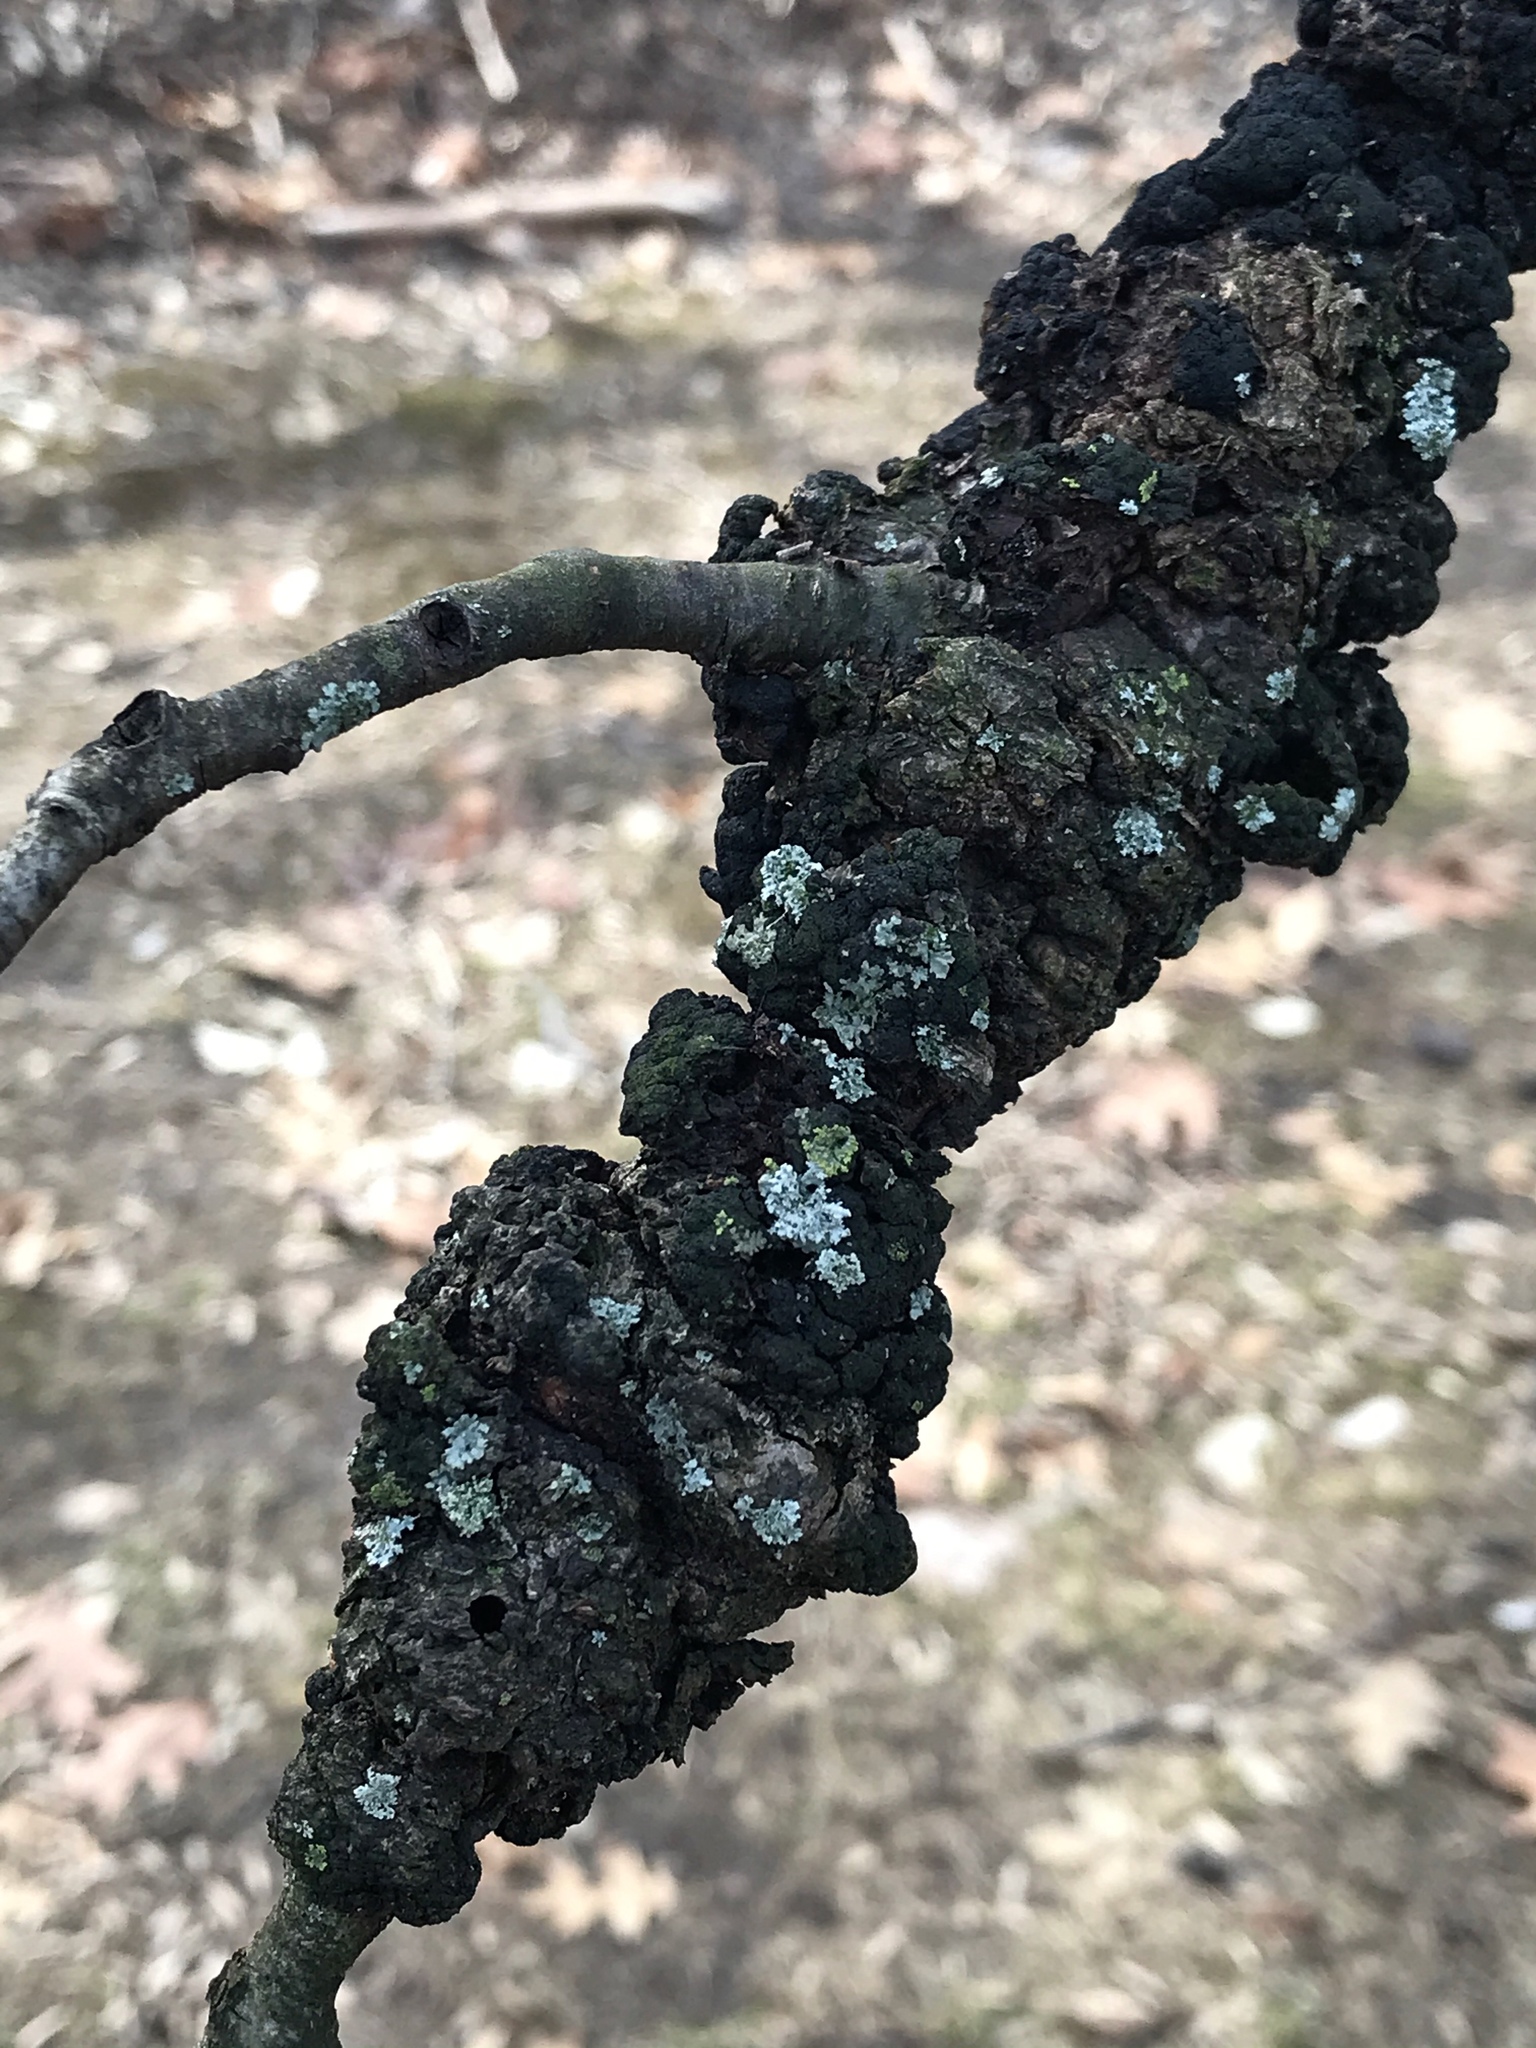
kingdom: Fungi
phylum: Ascomycota
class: Dothideomycetes
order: Venturiales
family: Venturiaceae
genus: Apiosporina
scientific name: Apiosporina morbosa
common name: Black knot
